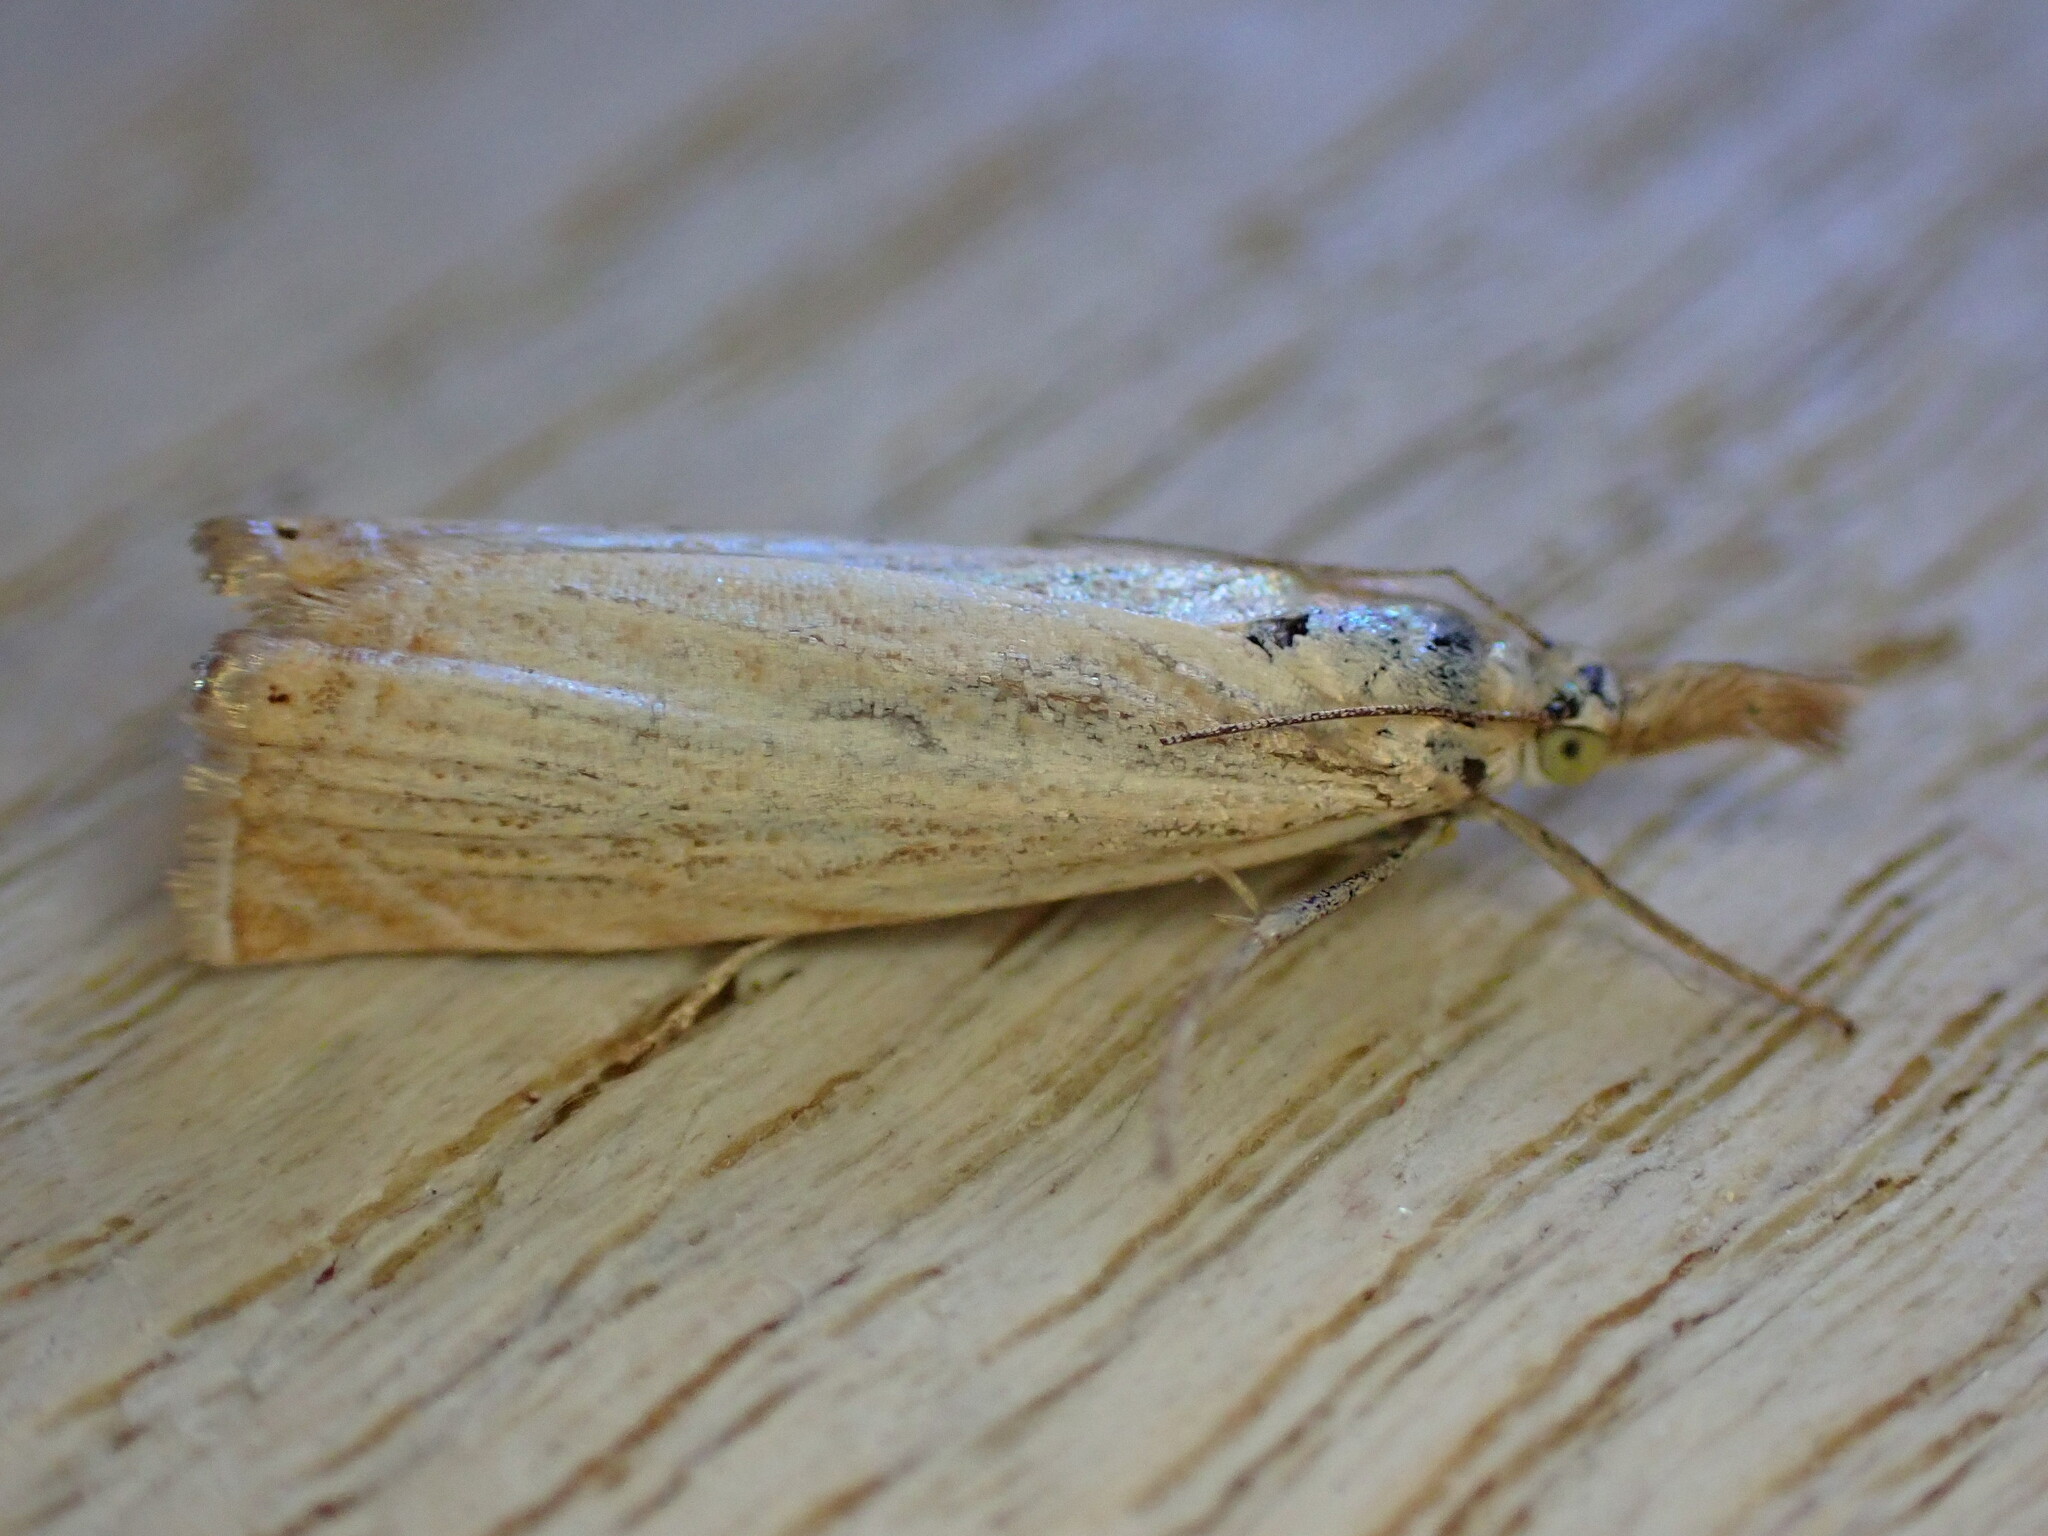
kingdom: Animalia
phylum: Arthropoda
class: Insecta
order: Lepidoptera
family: Crambidae
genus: Chrysoteuchia
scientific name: Chrysoteuchia culmella
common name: Garden grass-veneer
